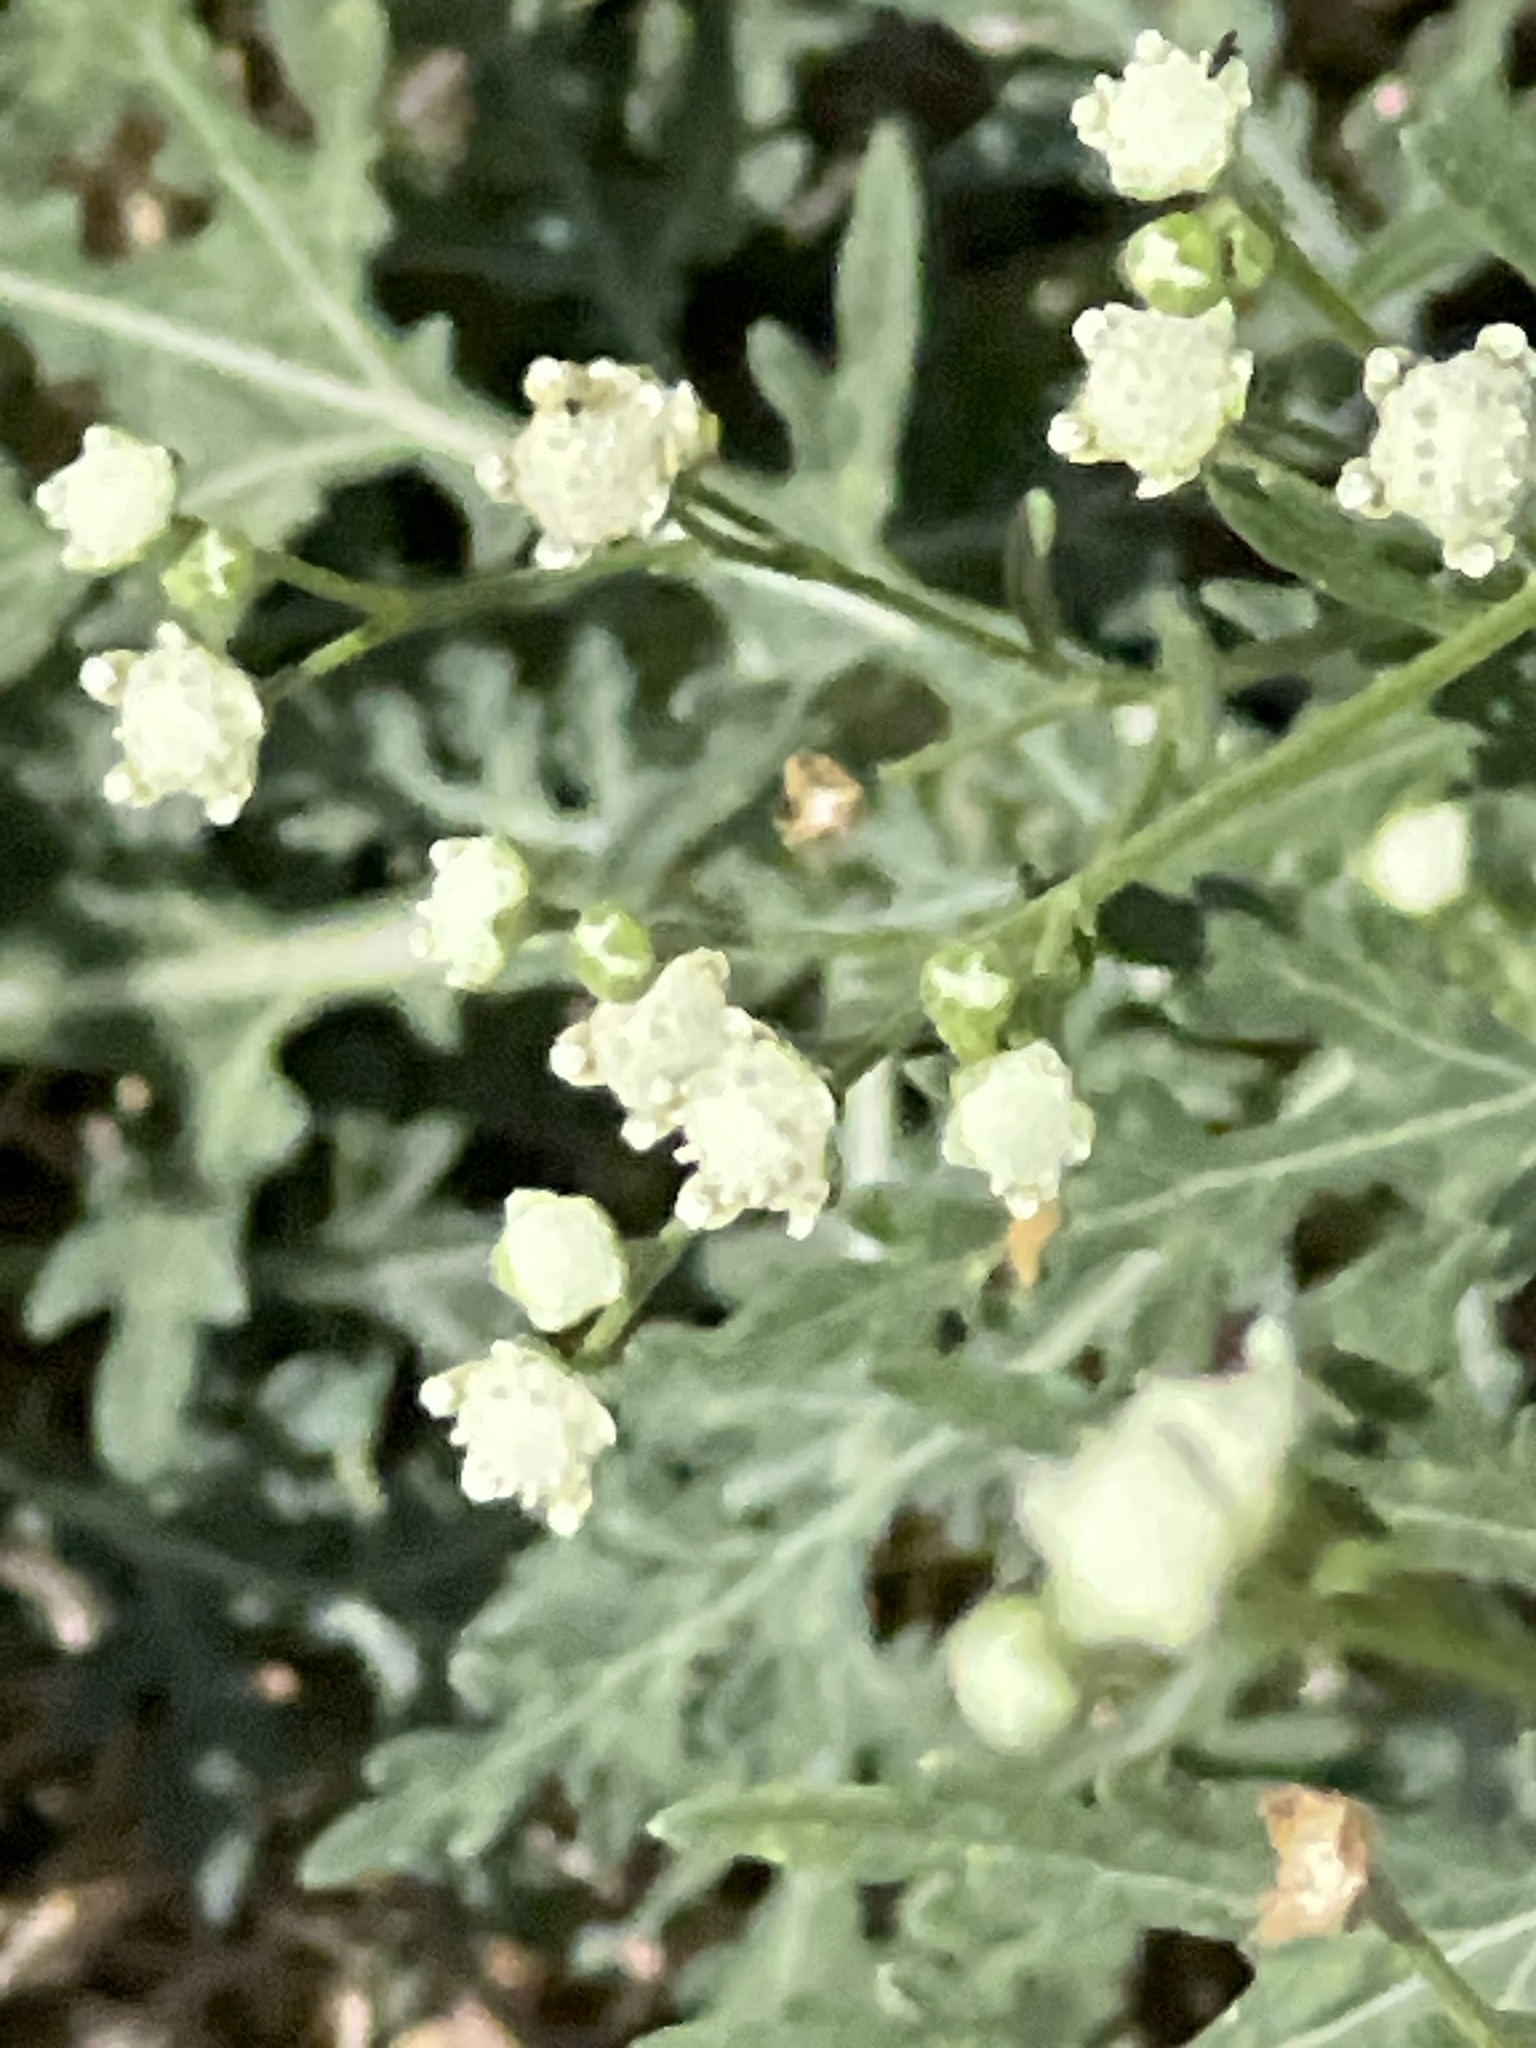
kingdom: Plantae
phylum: Tracheophyta
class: Magnoliopsida
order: Asterales
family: Asteraceae
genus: Parthenium
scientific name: Parthenium hysterophorus
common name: Santa maria feverfew
